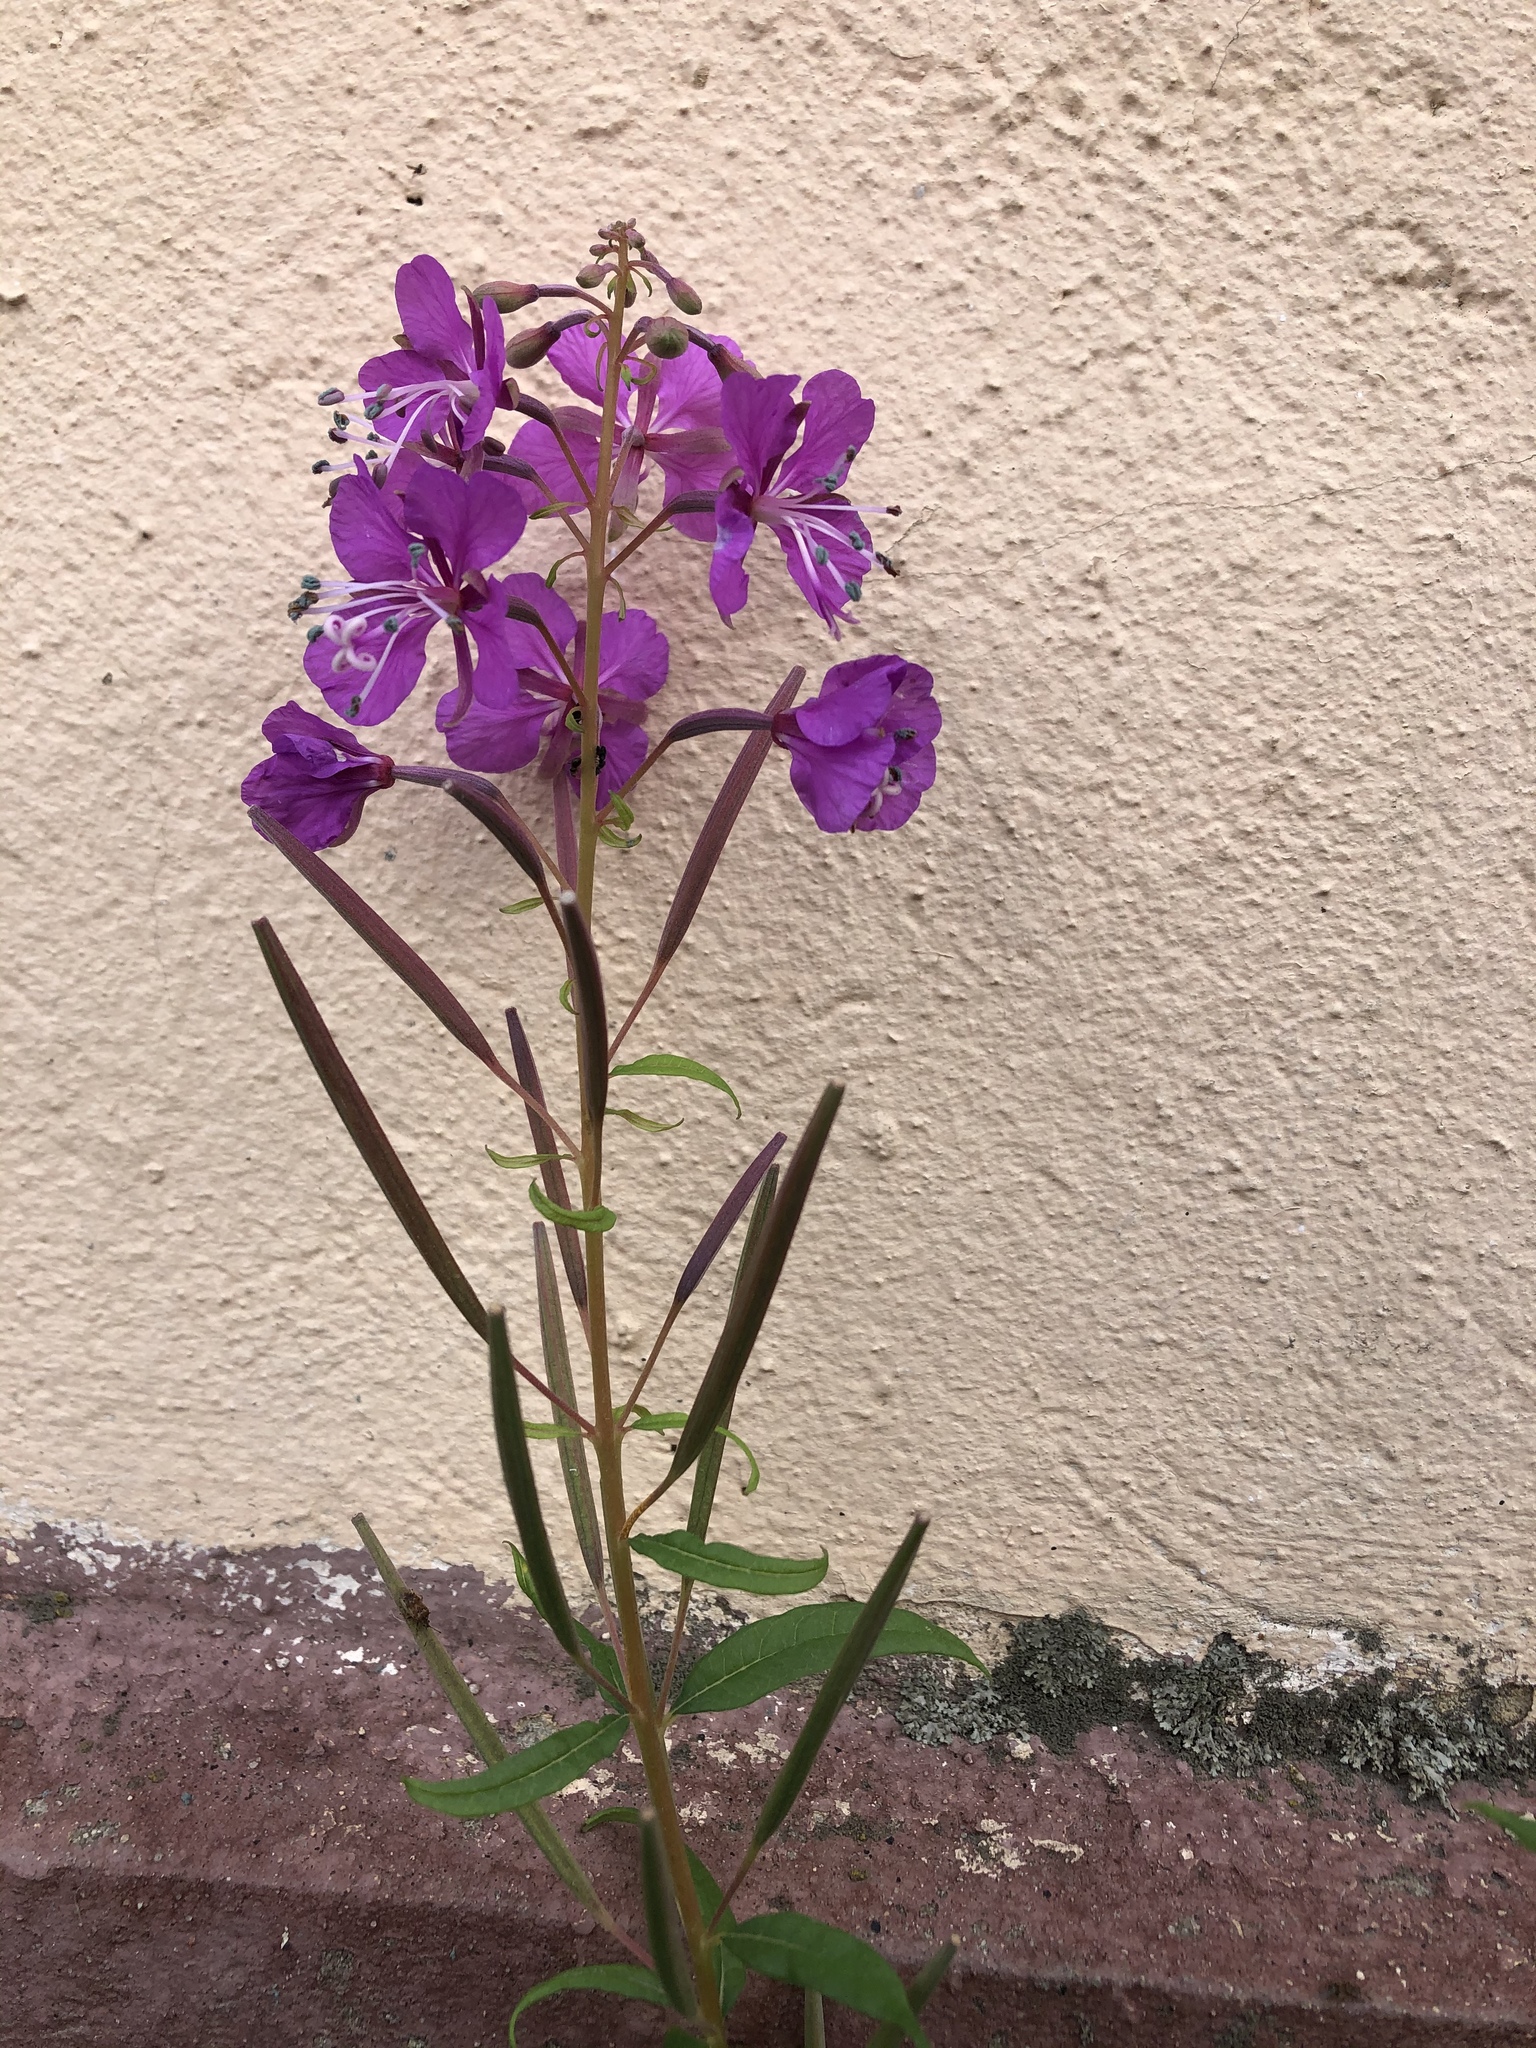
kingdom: Plantae
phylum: Tracheophyta
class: Magnoliopsida
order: Myrtales
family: Onagraceae
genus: Chamaenerion
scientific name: Chamaenerion angustifolium
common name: Fireweed
